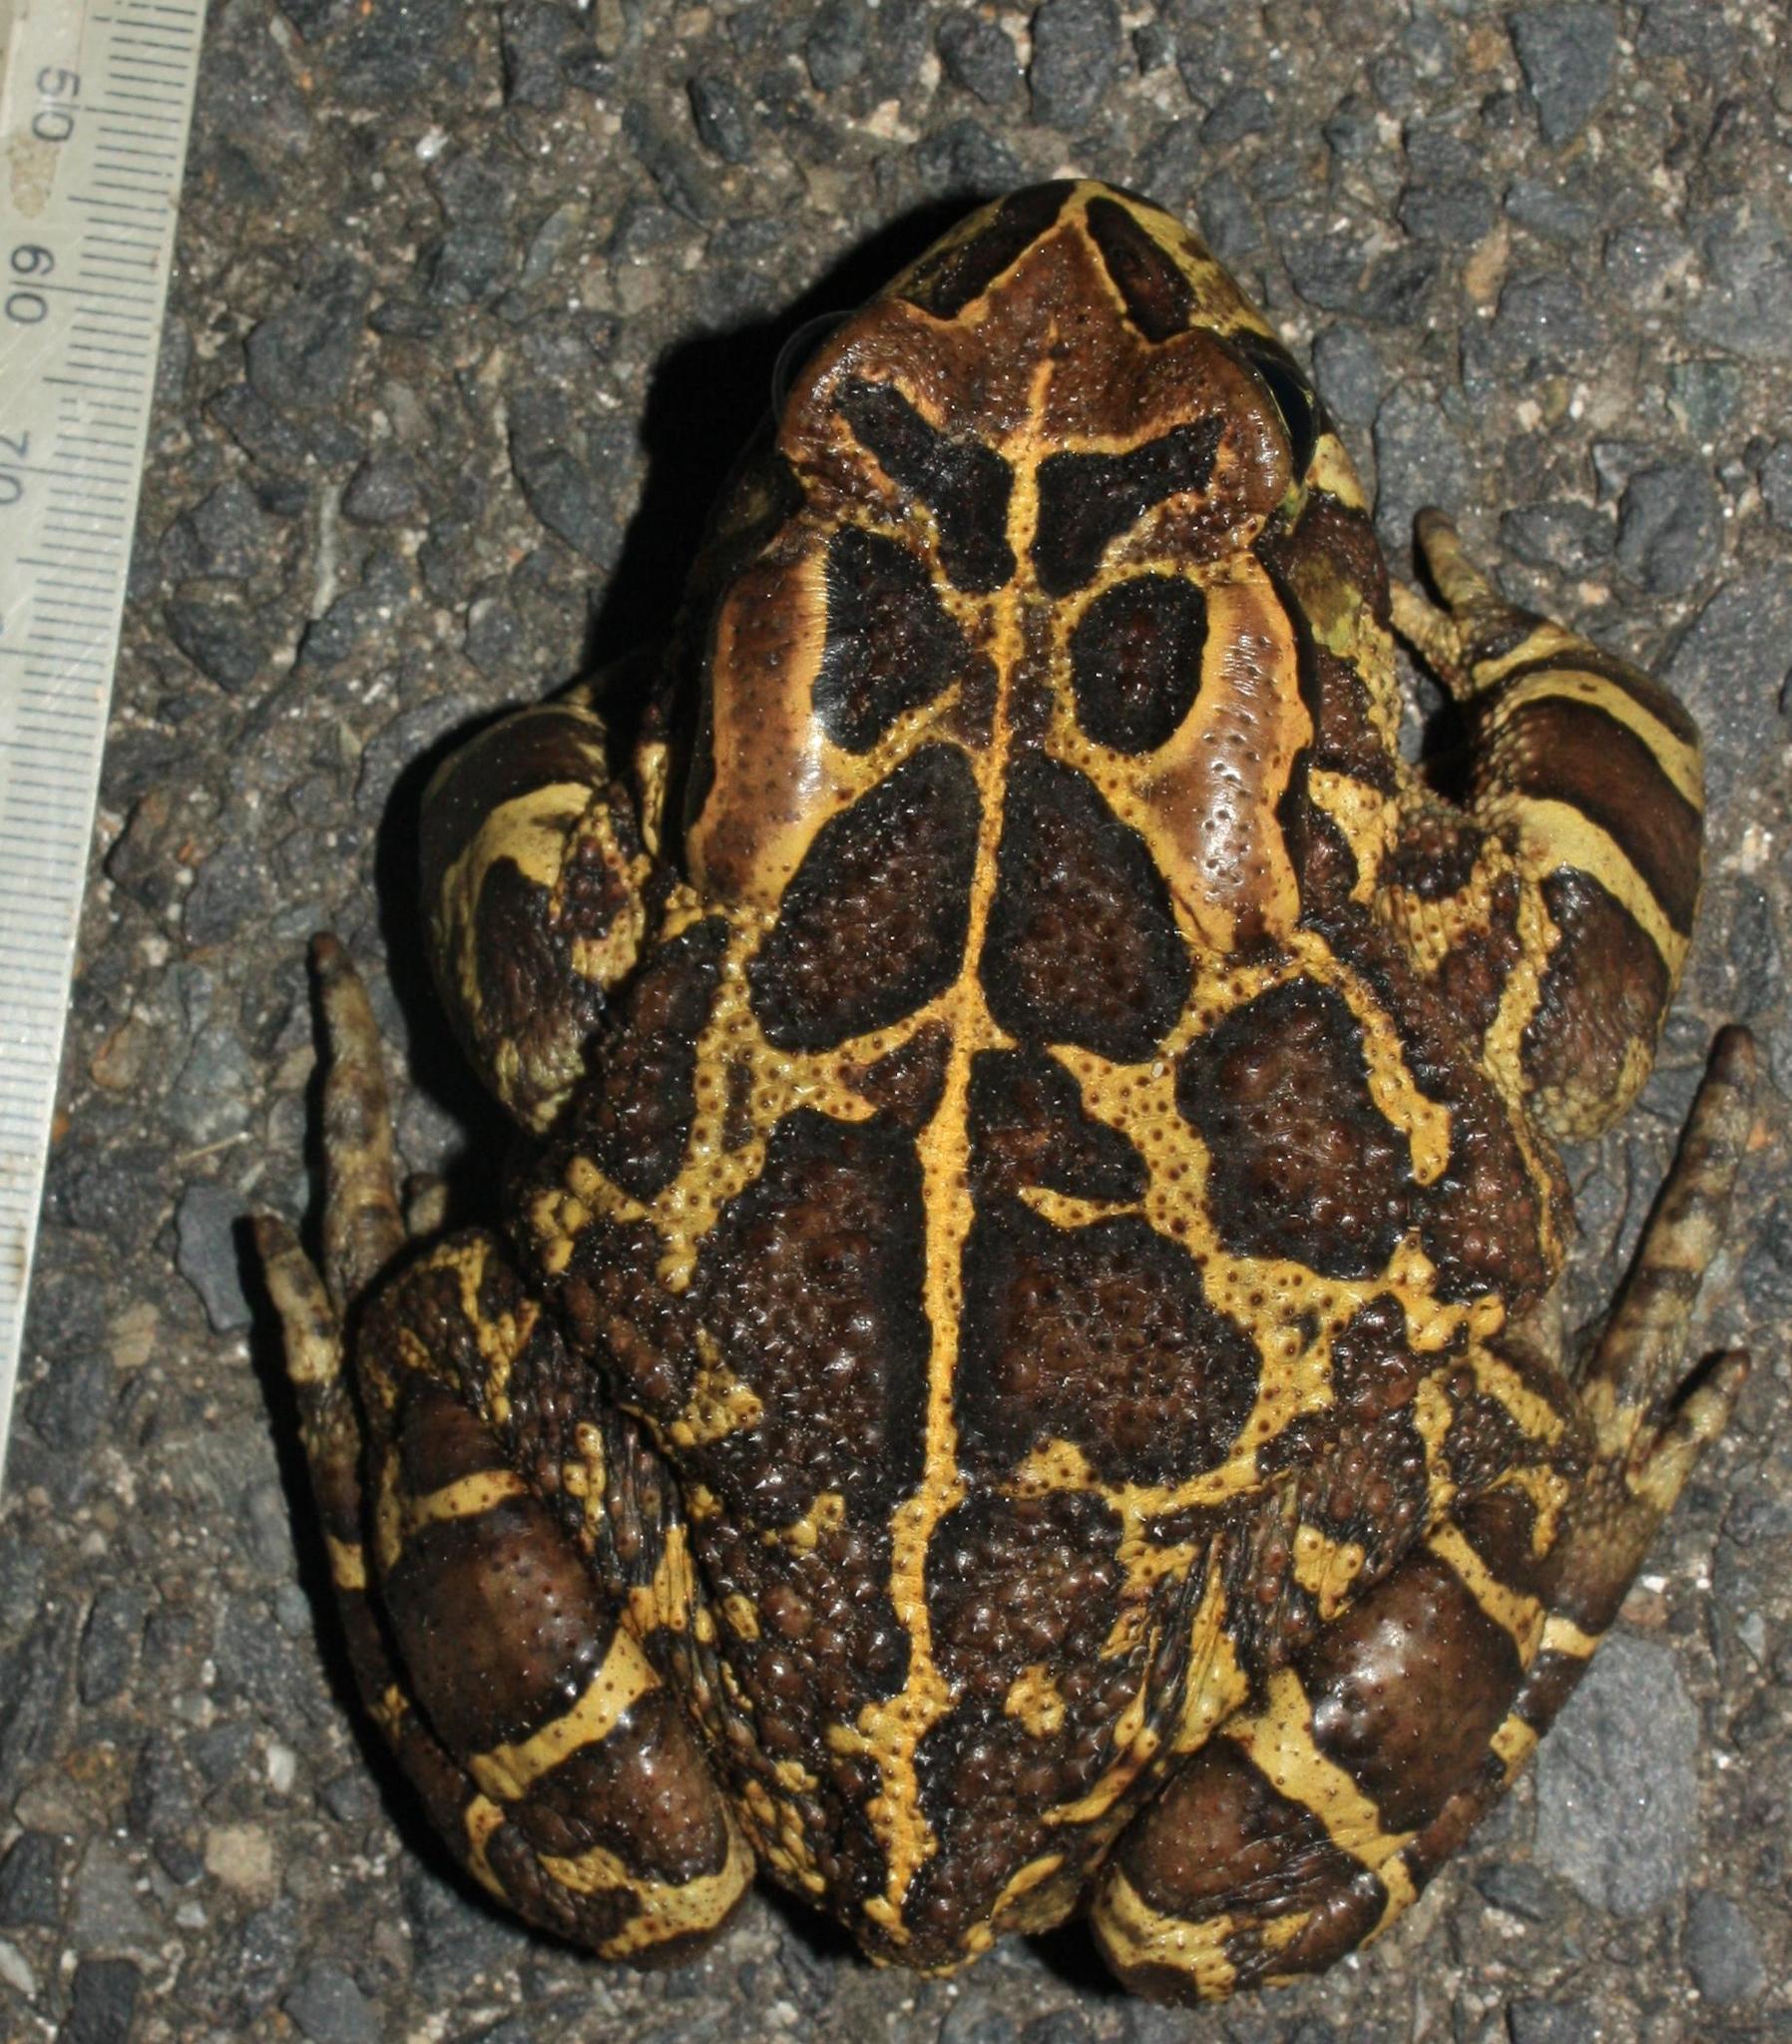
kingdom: Animalia
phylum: Chordata
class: Amphibia
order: Anura
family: Bufonidae
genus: Sclerophrys
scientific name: Sclerophrys pantherina
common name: Panther toad
